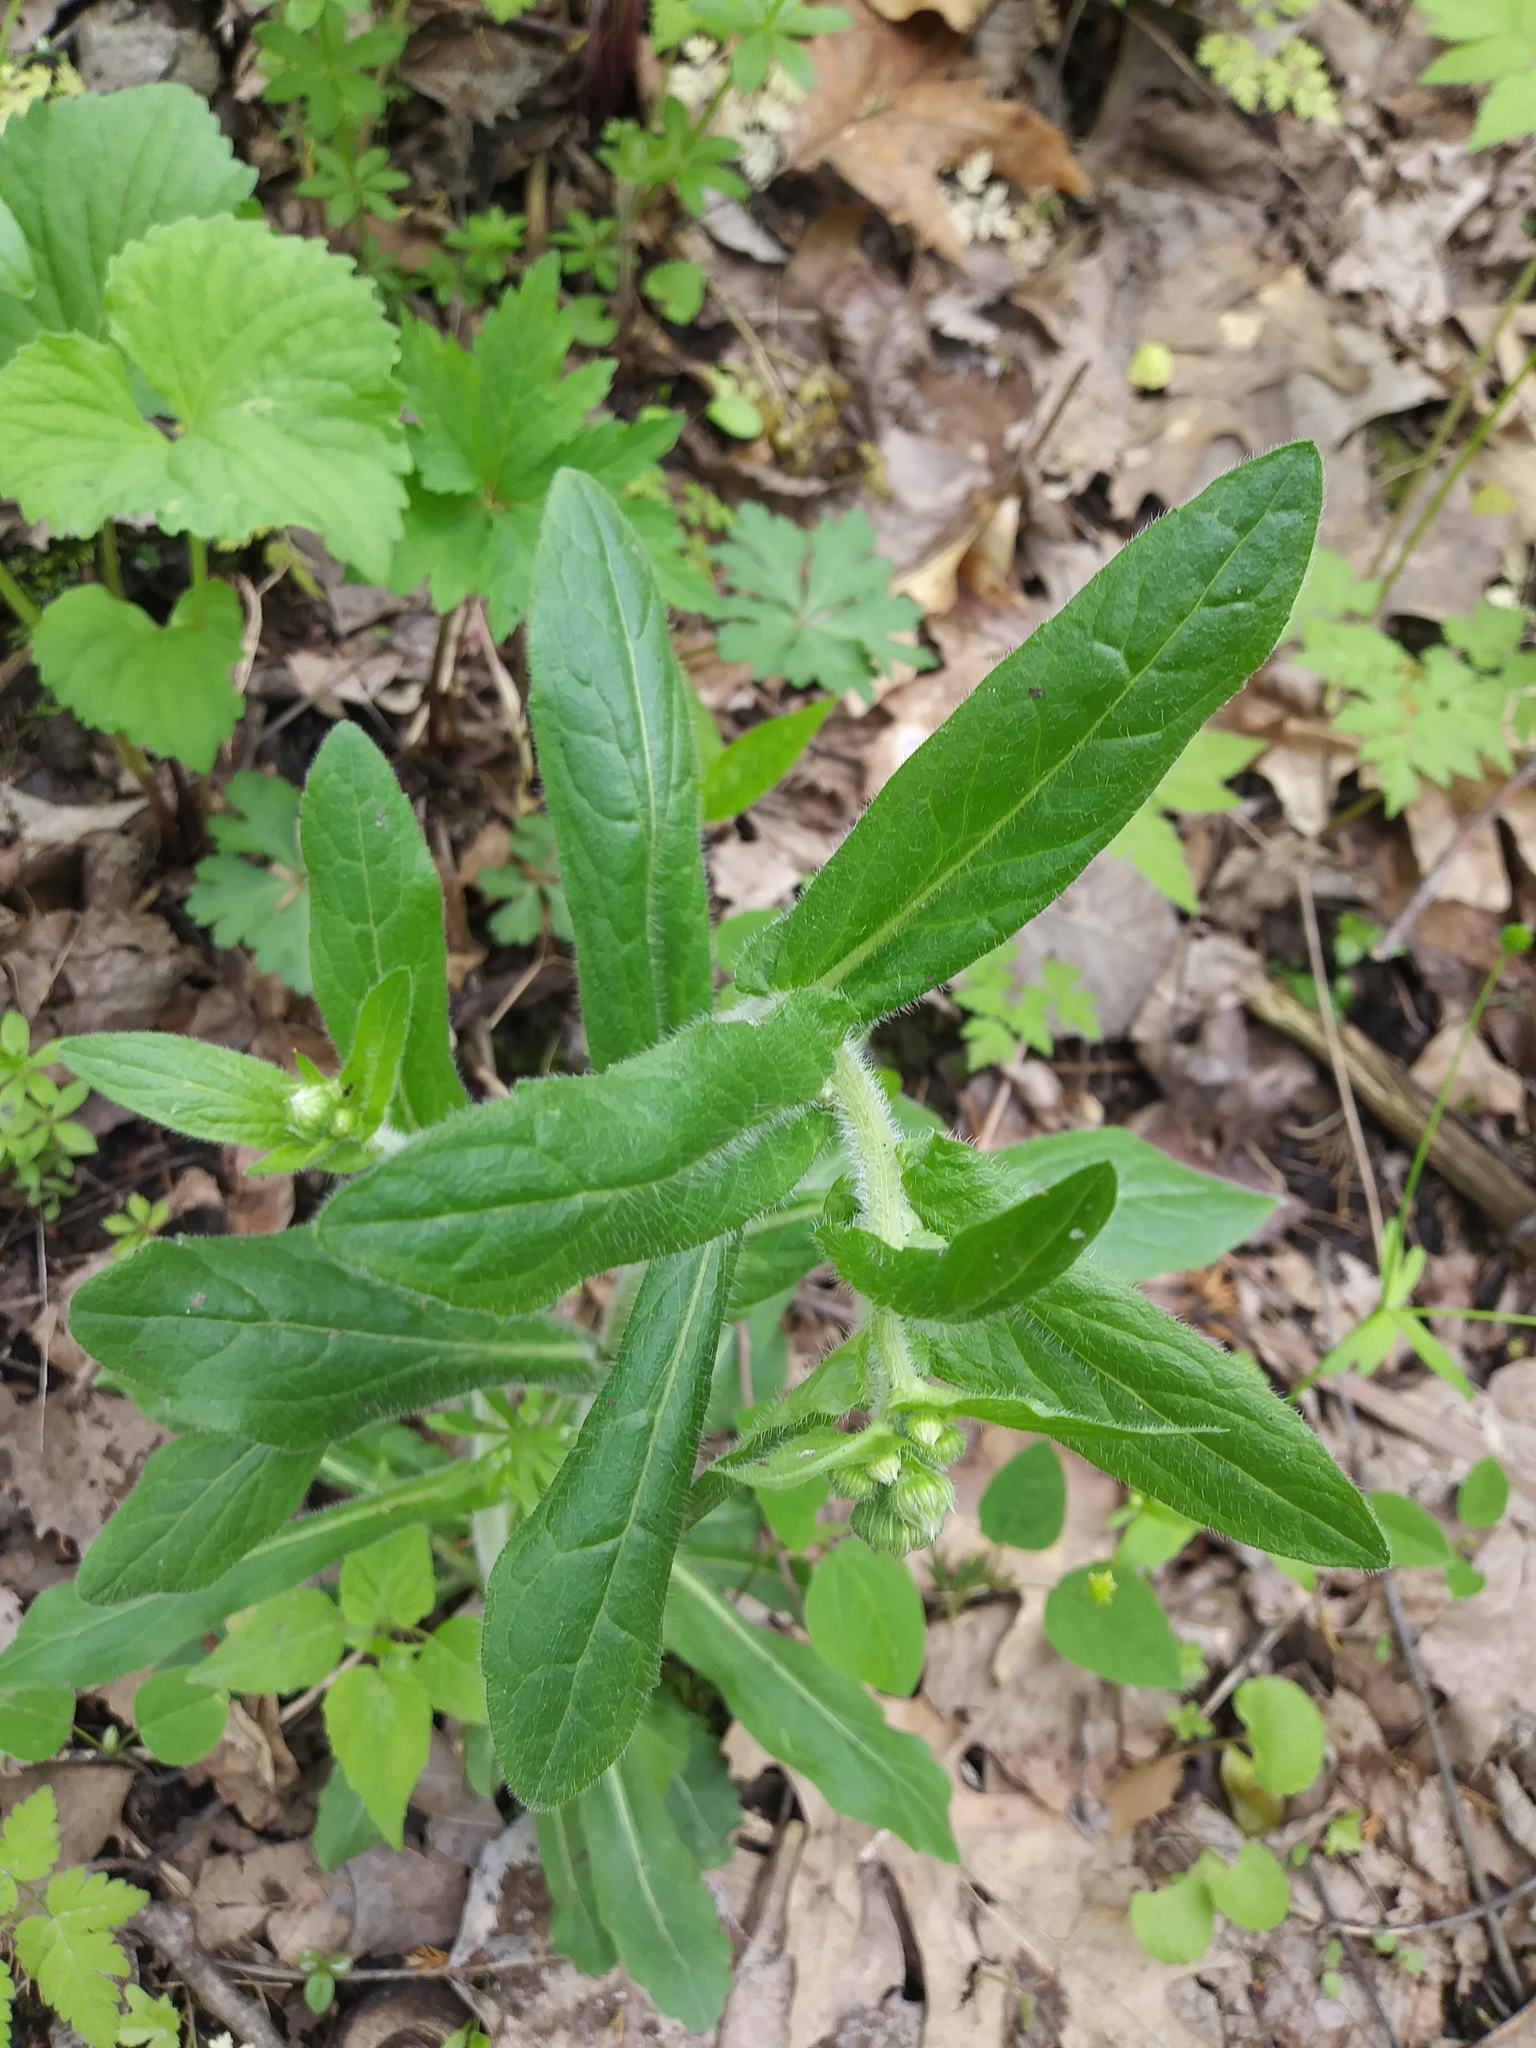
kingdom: Plantae
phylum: Tracheophyta
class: Magnoliopsida
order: Asterales
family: Asteraceae
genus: Erigeron
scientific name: Erigeron philadelphicus
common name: Robin's-plantain
